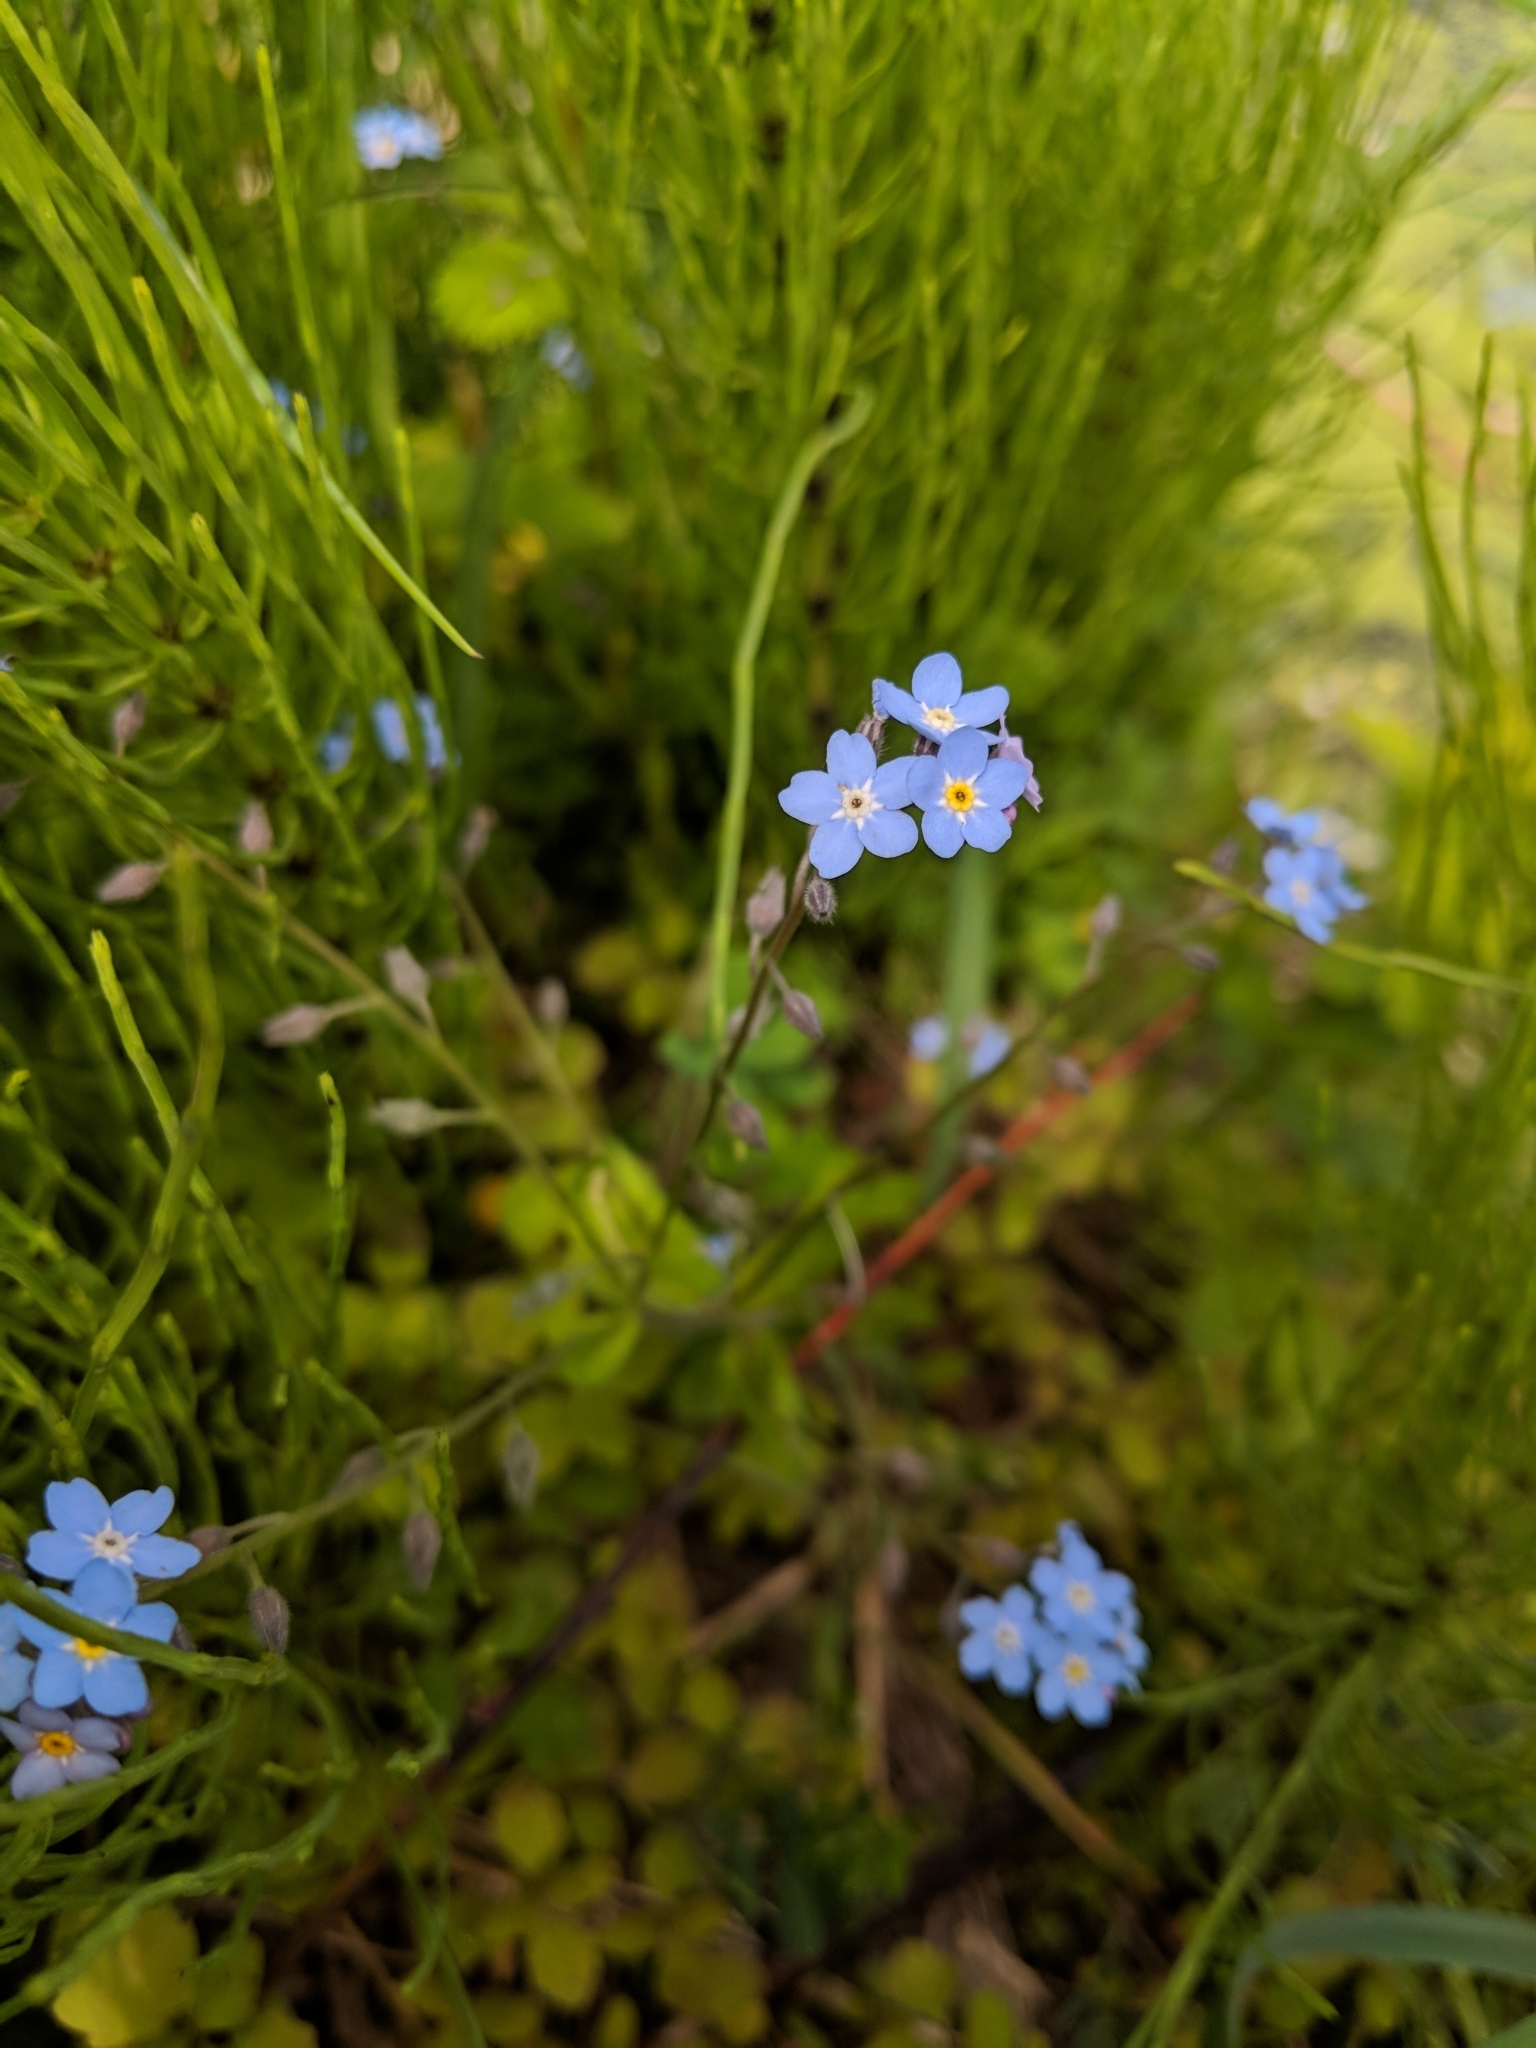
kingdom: Plantae
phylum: Tracheophyta
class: Magnoliopsida
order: Boraginales
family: Boraginaceae
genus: Myosotis
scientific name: Myosotis sylvatica
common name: Wood forget-me-not
